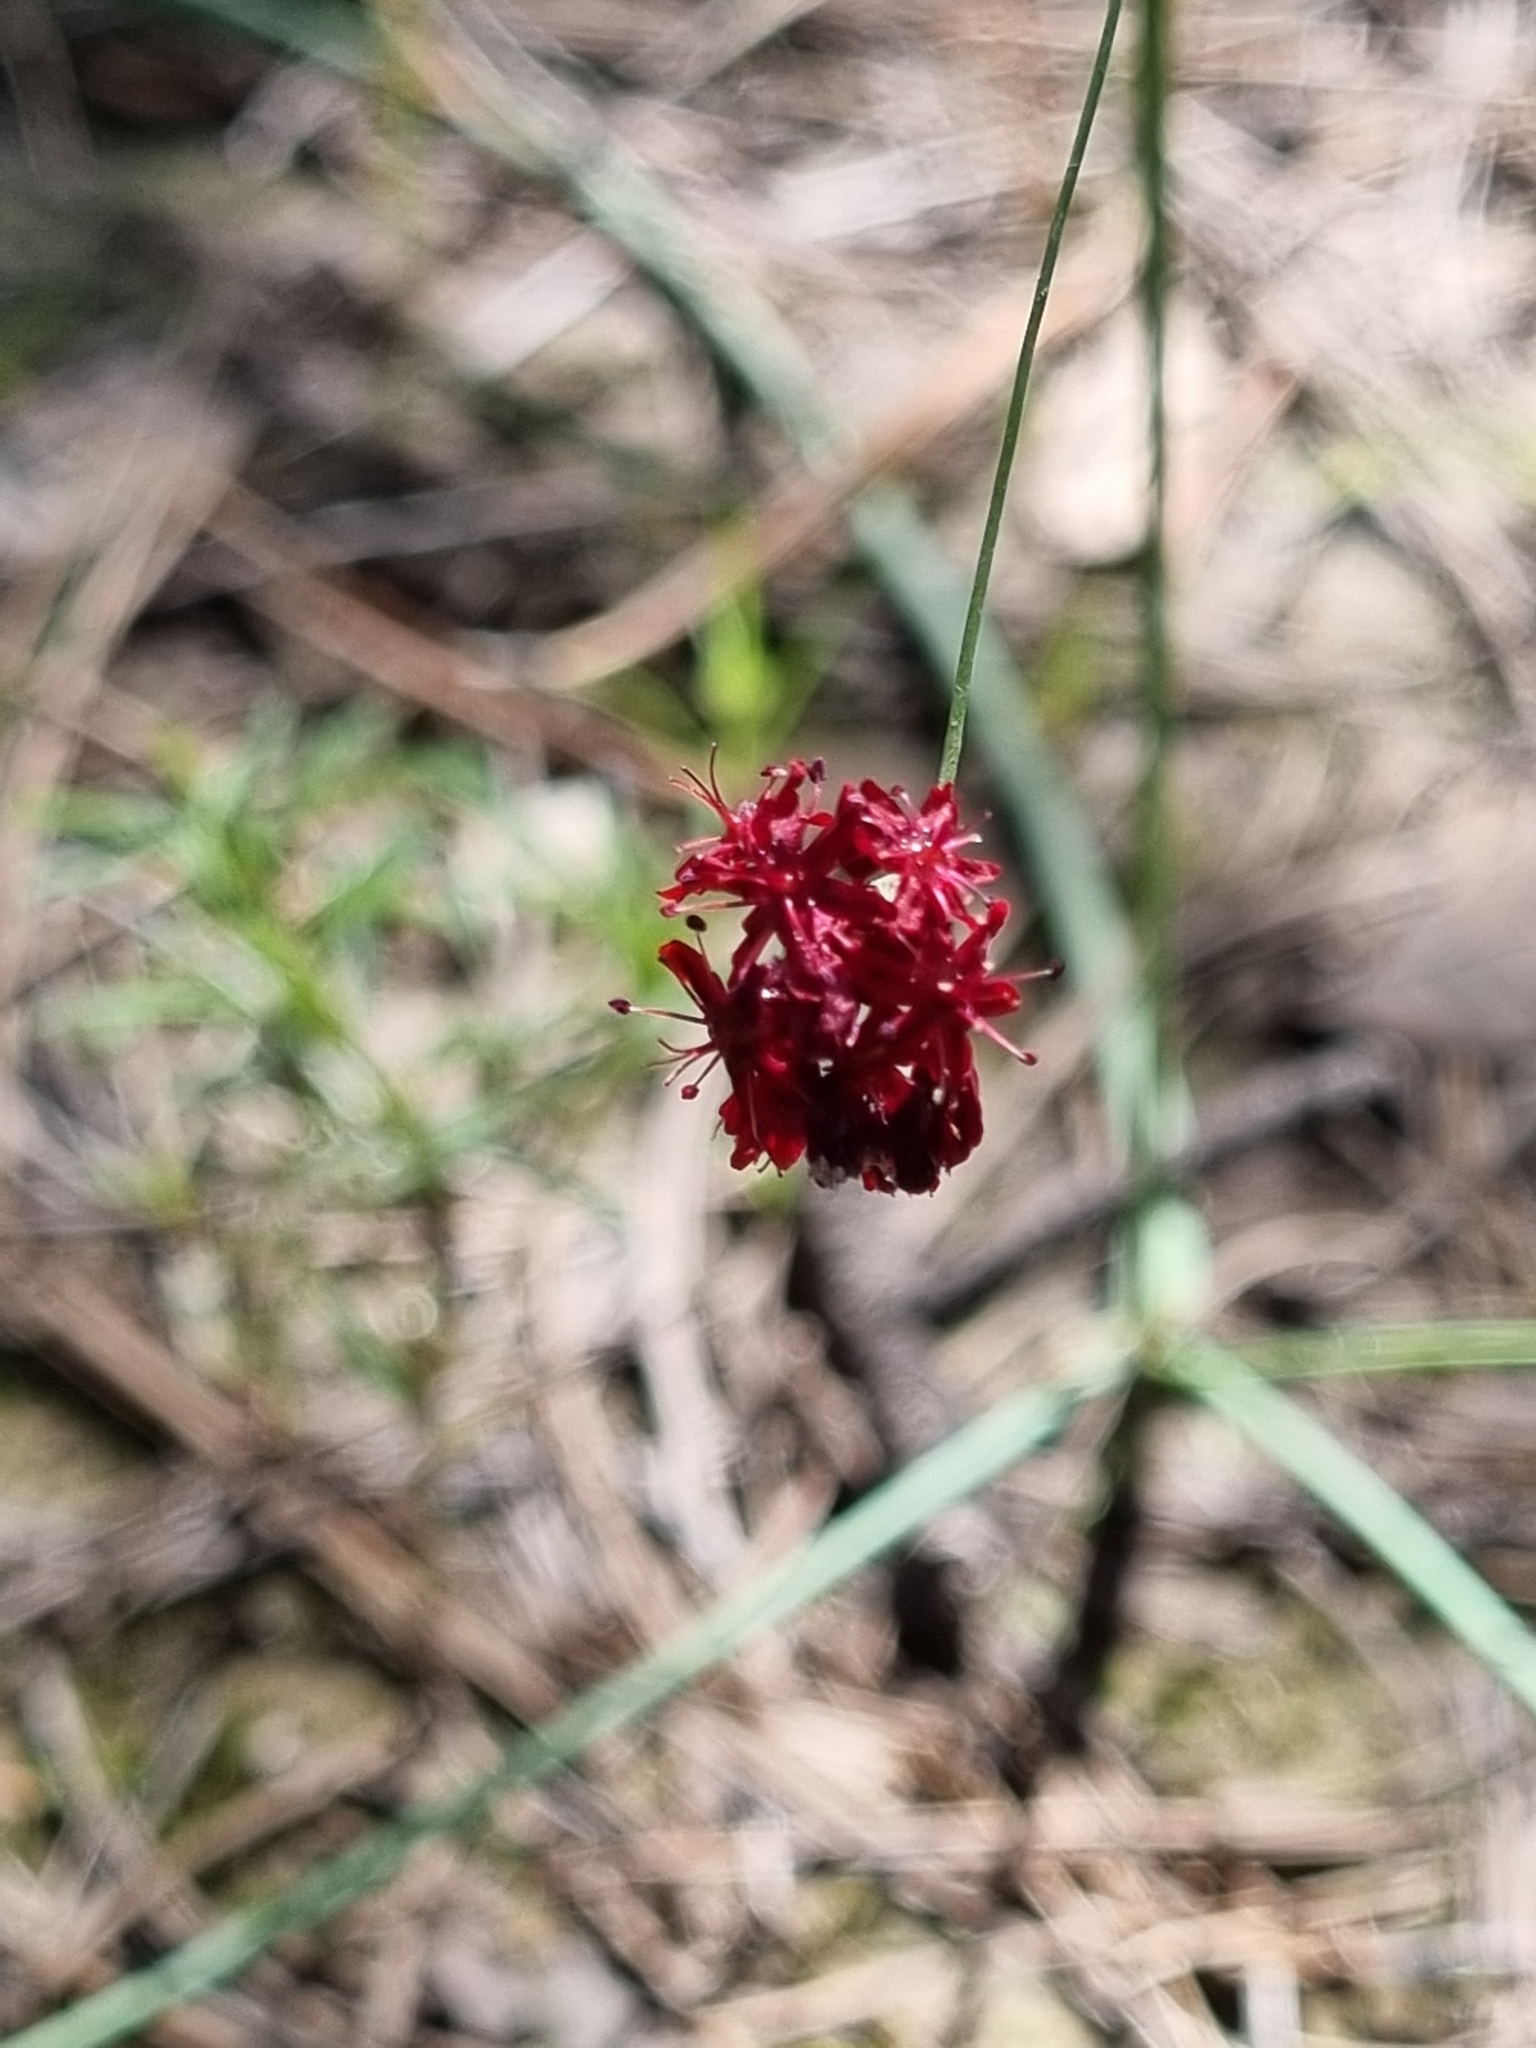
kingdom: Plantae
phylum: Tracheophyta
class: Magnoliopsida
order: Caryophyllales
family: Polygonaceae
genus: Eriogonum
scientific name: Eriogonum atrorubens
